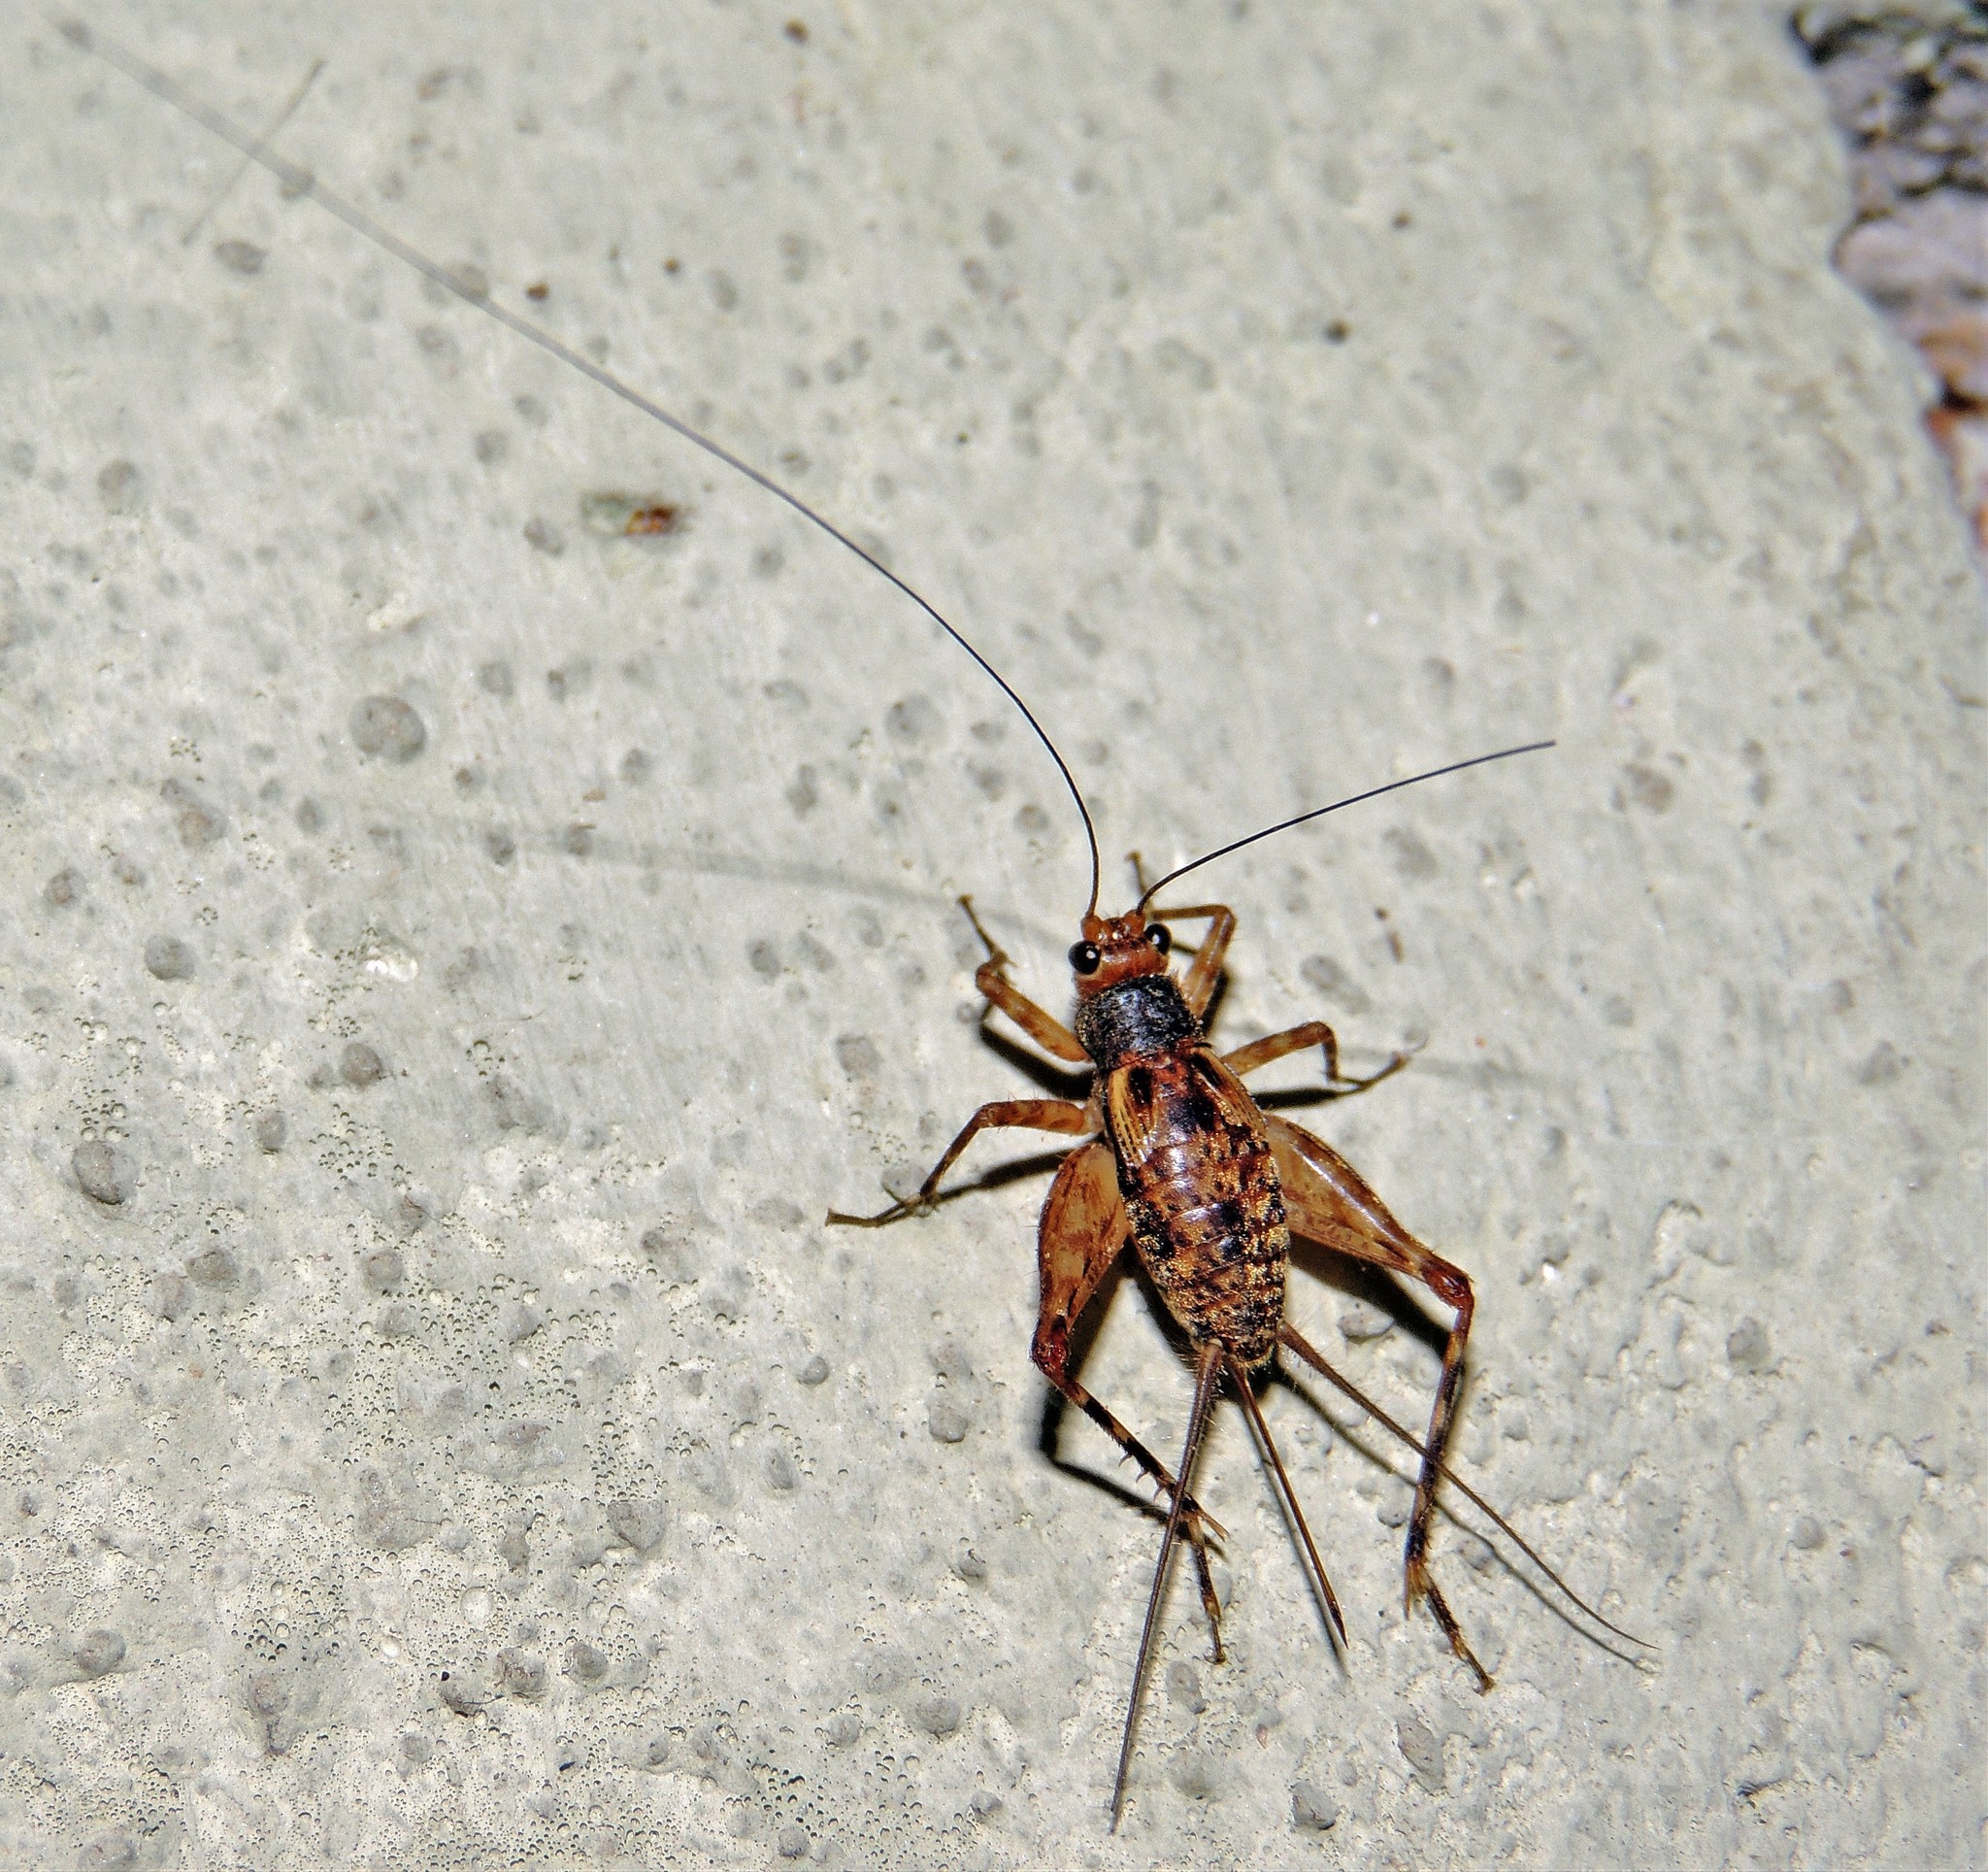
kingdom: Animalia
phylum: Arthropoda
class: Insecta
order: Orthoptera
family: Phalangopsidae
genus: Ubiquepuella
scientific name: Ubiquepuella telytokous
